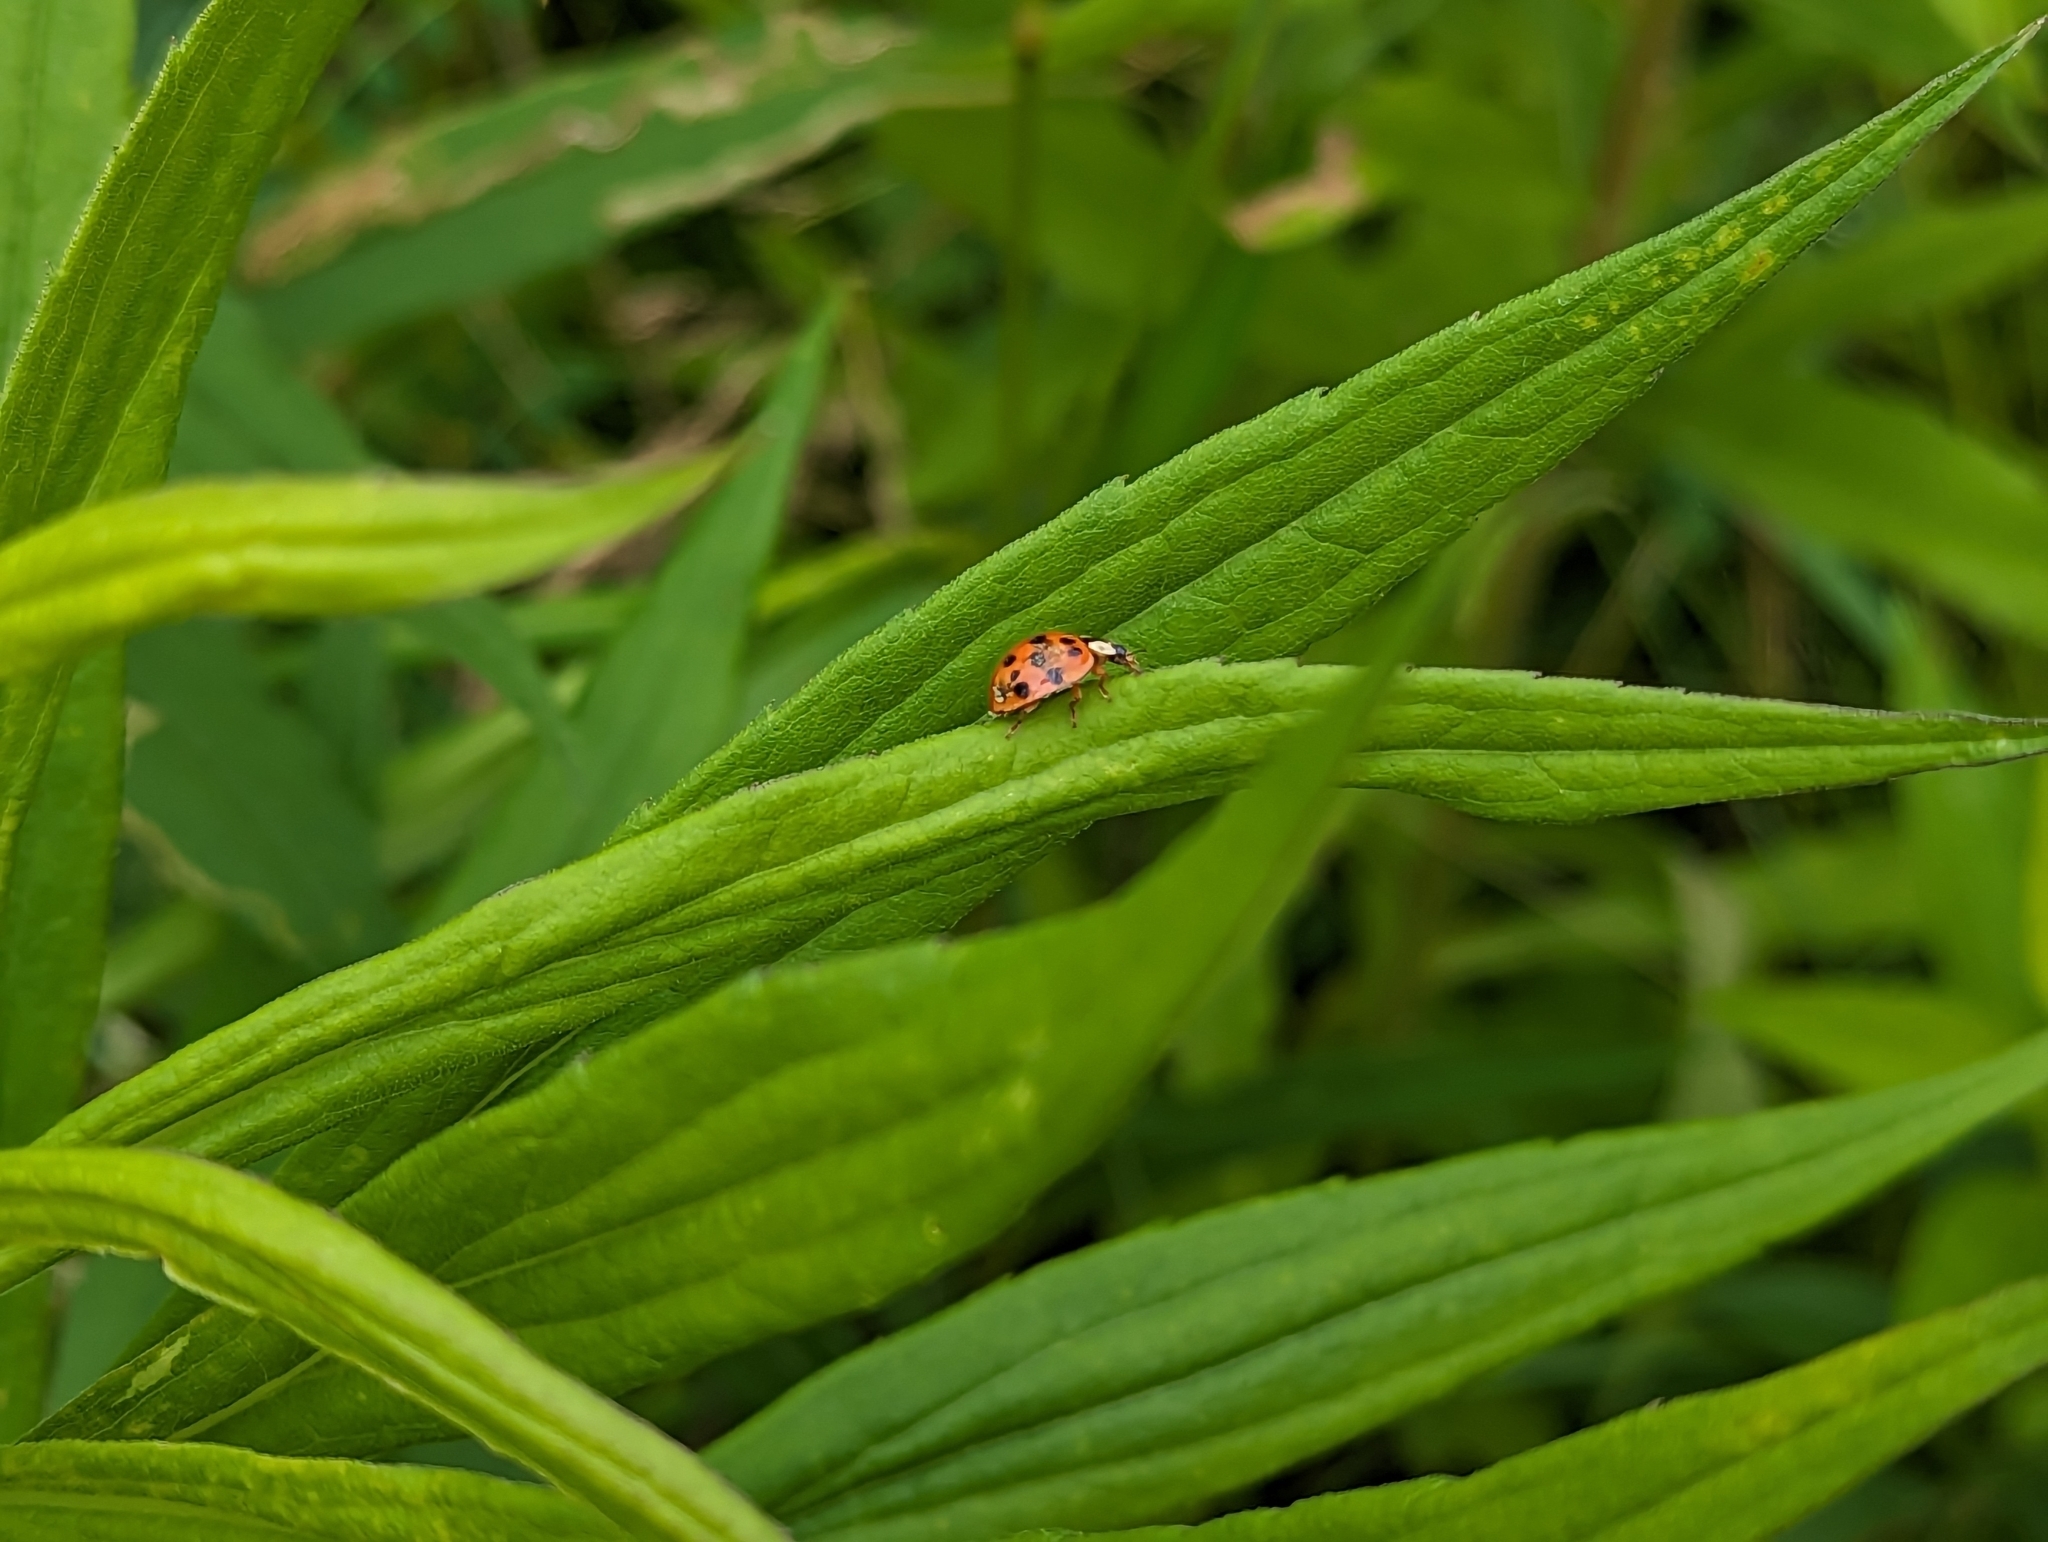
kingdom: Animalia
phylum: Arthropoda
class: Insecta
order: Coleoptera
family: Coccinellidae
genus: Harmonia
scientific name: Harmonia axyridis
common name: Harlequin ladybird
